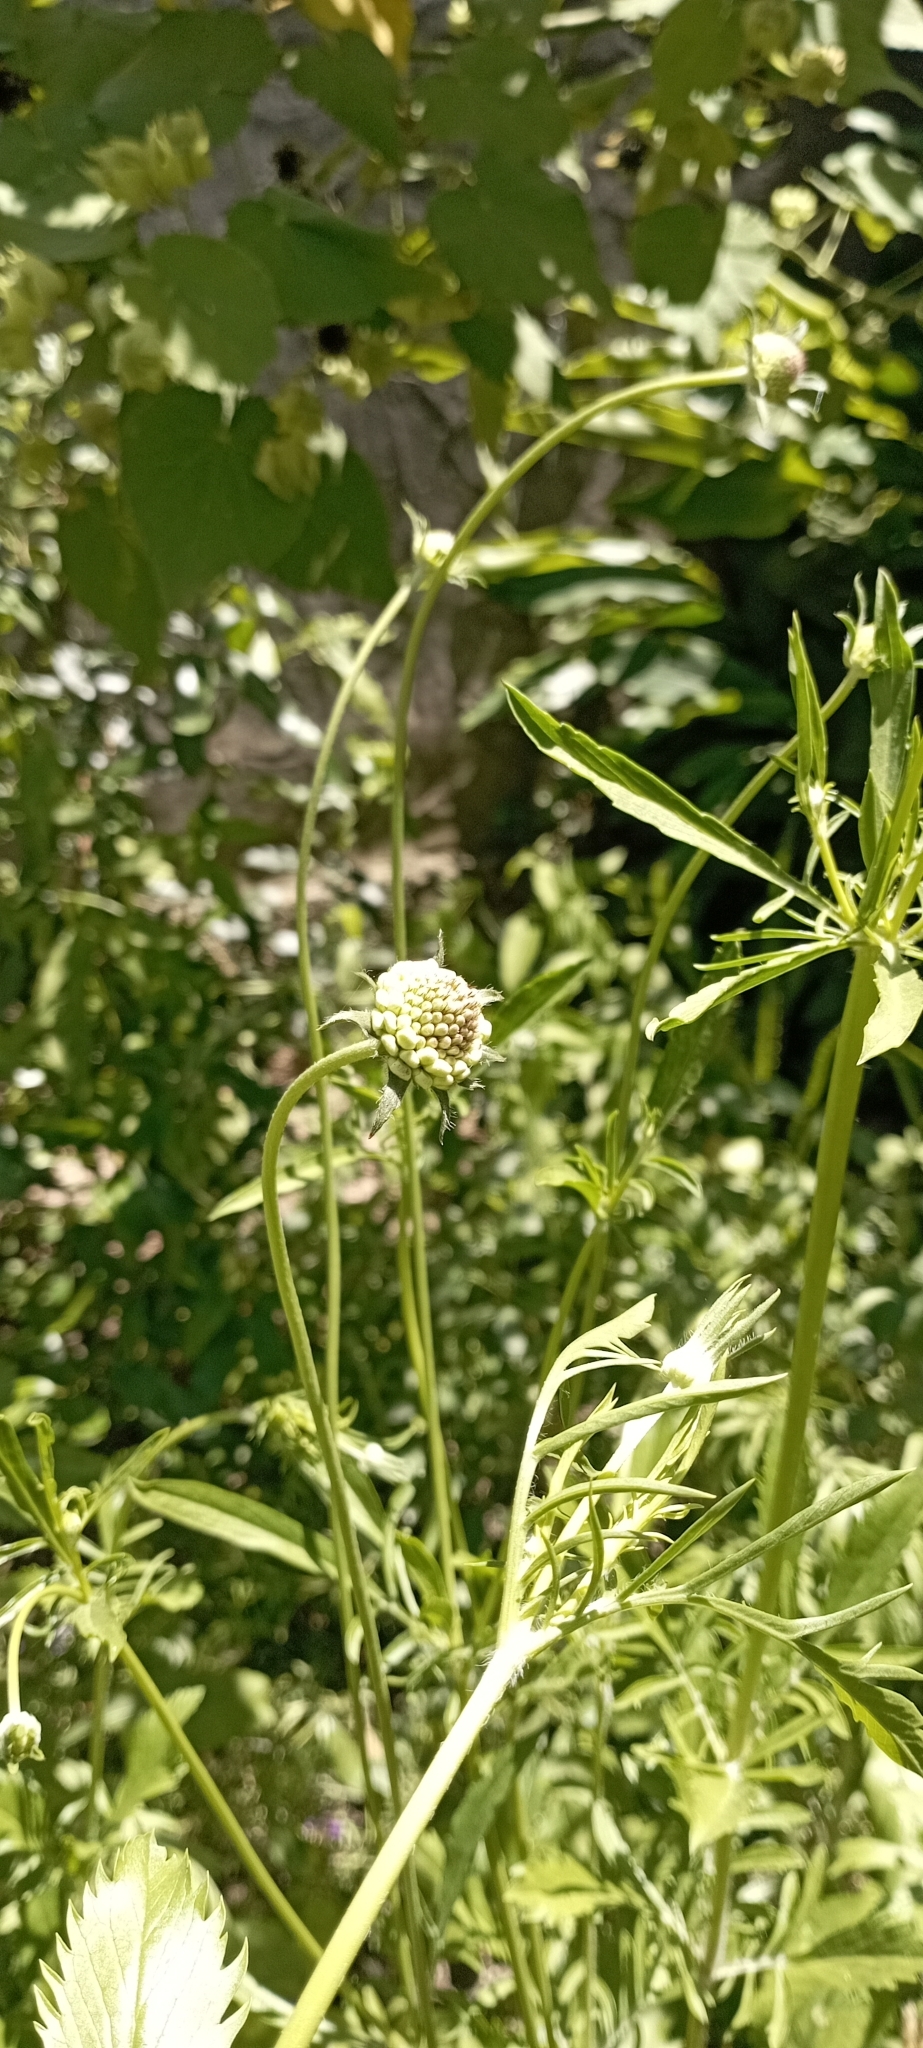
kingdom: Plantae
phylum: Tracheophyta
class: Magnoliopsida
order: Dipsacales
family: Caprifoliaceae
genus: Sixalix
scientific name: Sixalix atropurpurea
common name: Sweet scabious
